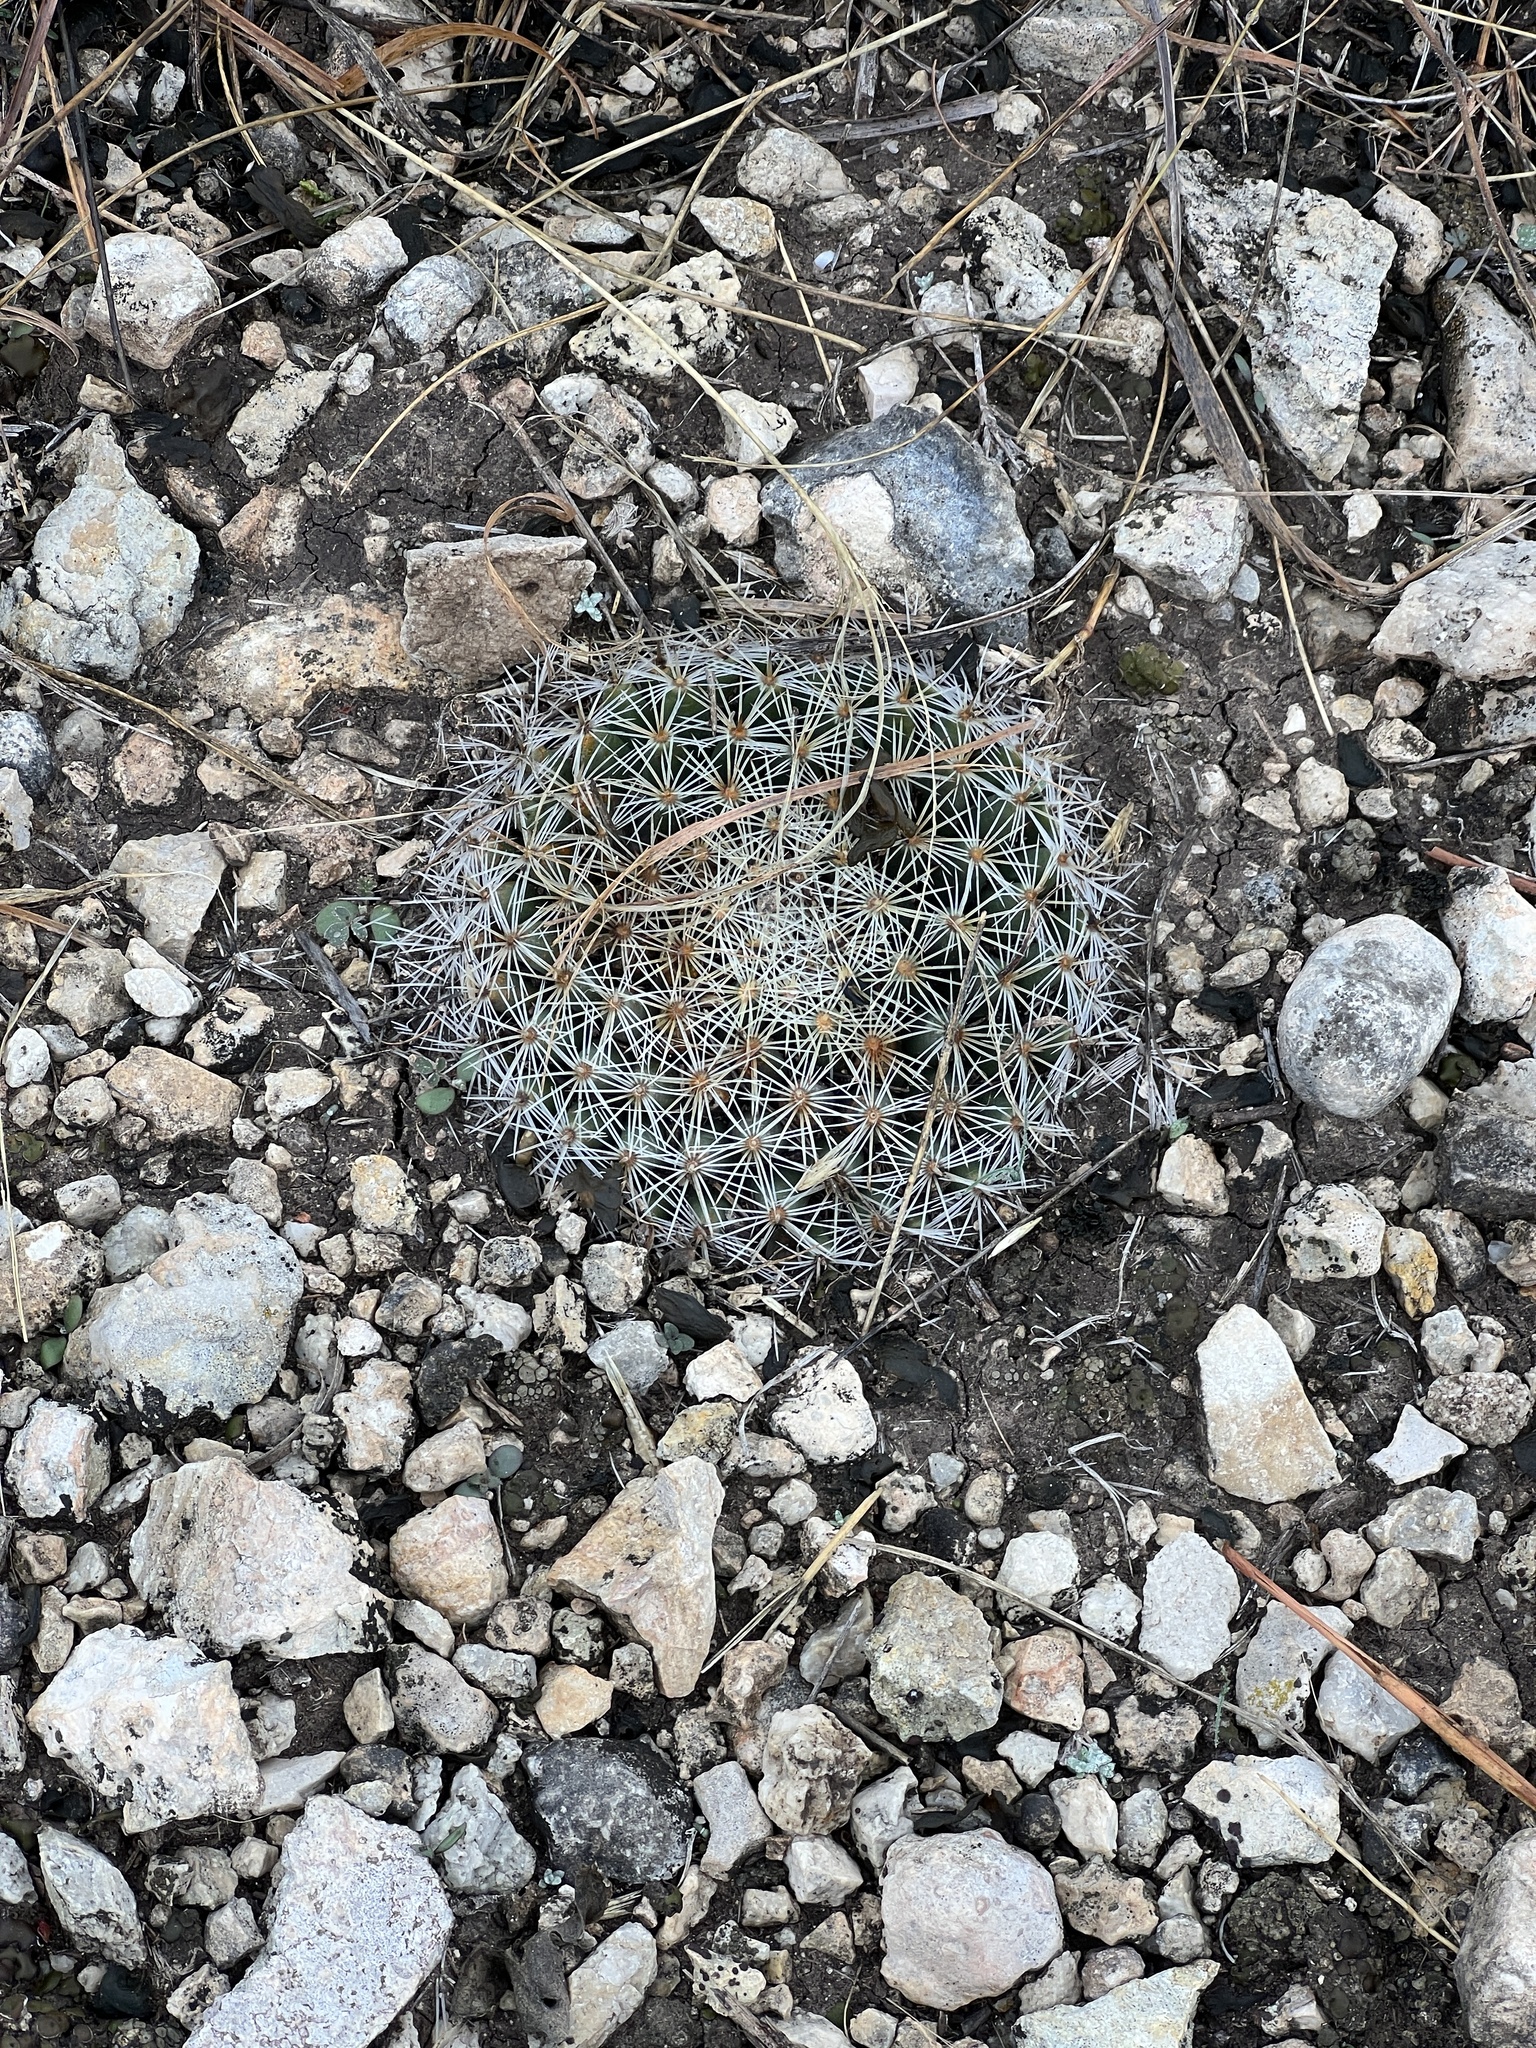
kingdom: Plantae
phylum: Tracheophyta
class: Magnoliopsida
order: Caryophyllales
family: Cactaceae
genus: Mammillaria
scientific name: Mammillaria heyderi
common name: Little nipple cactus
